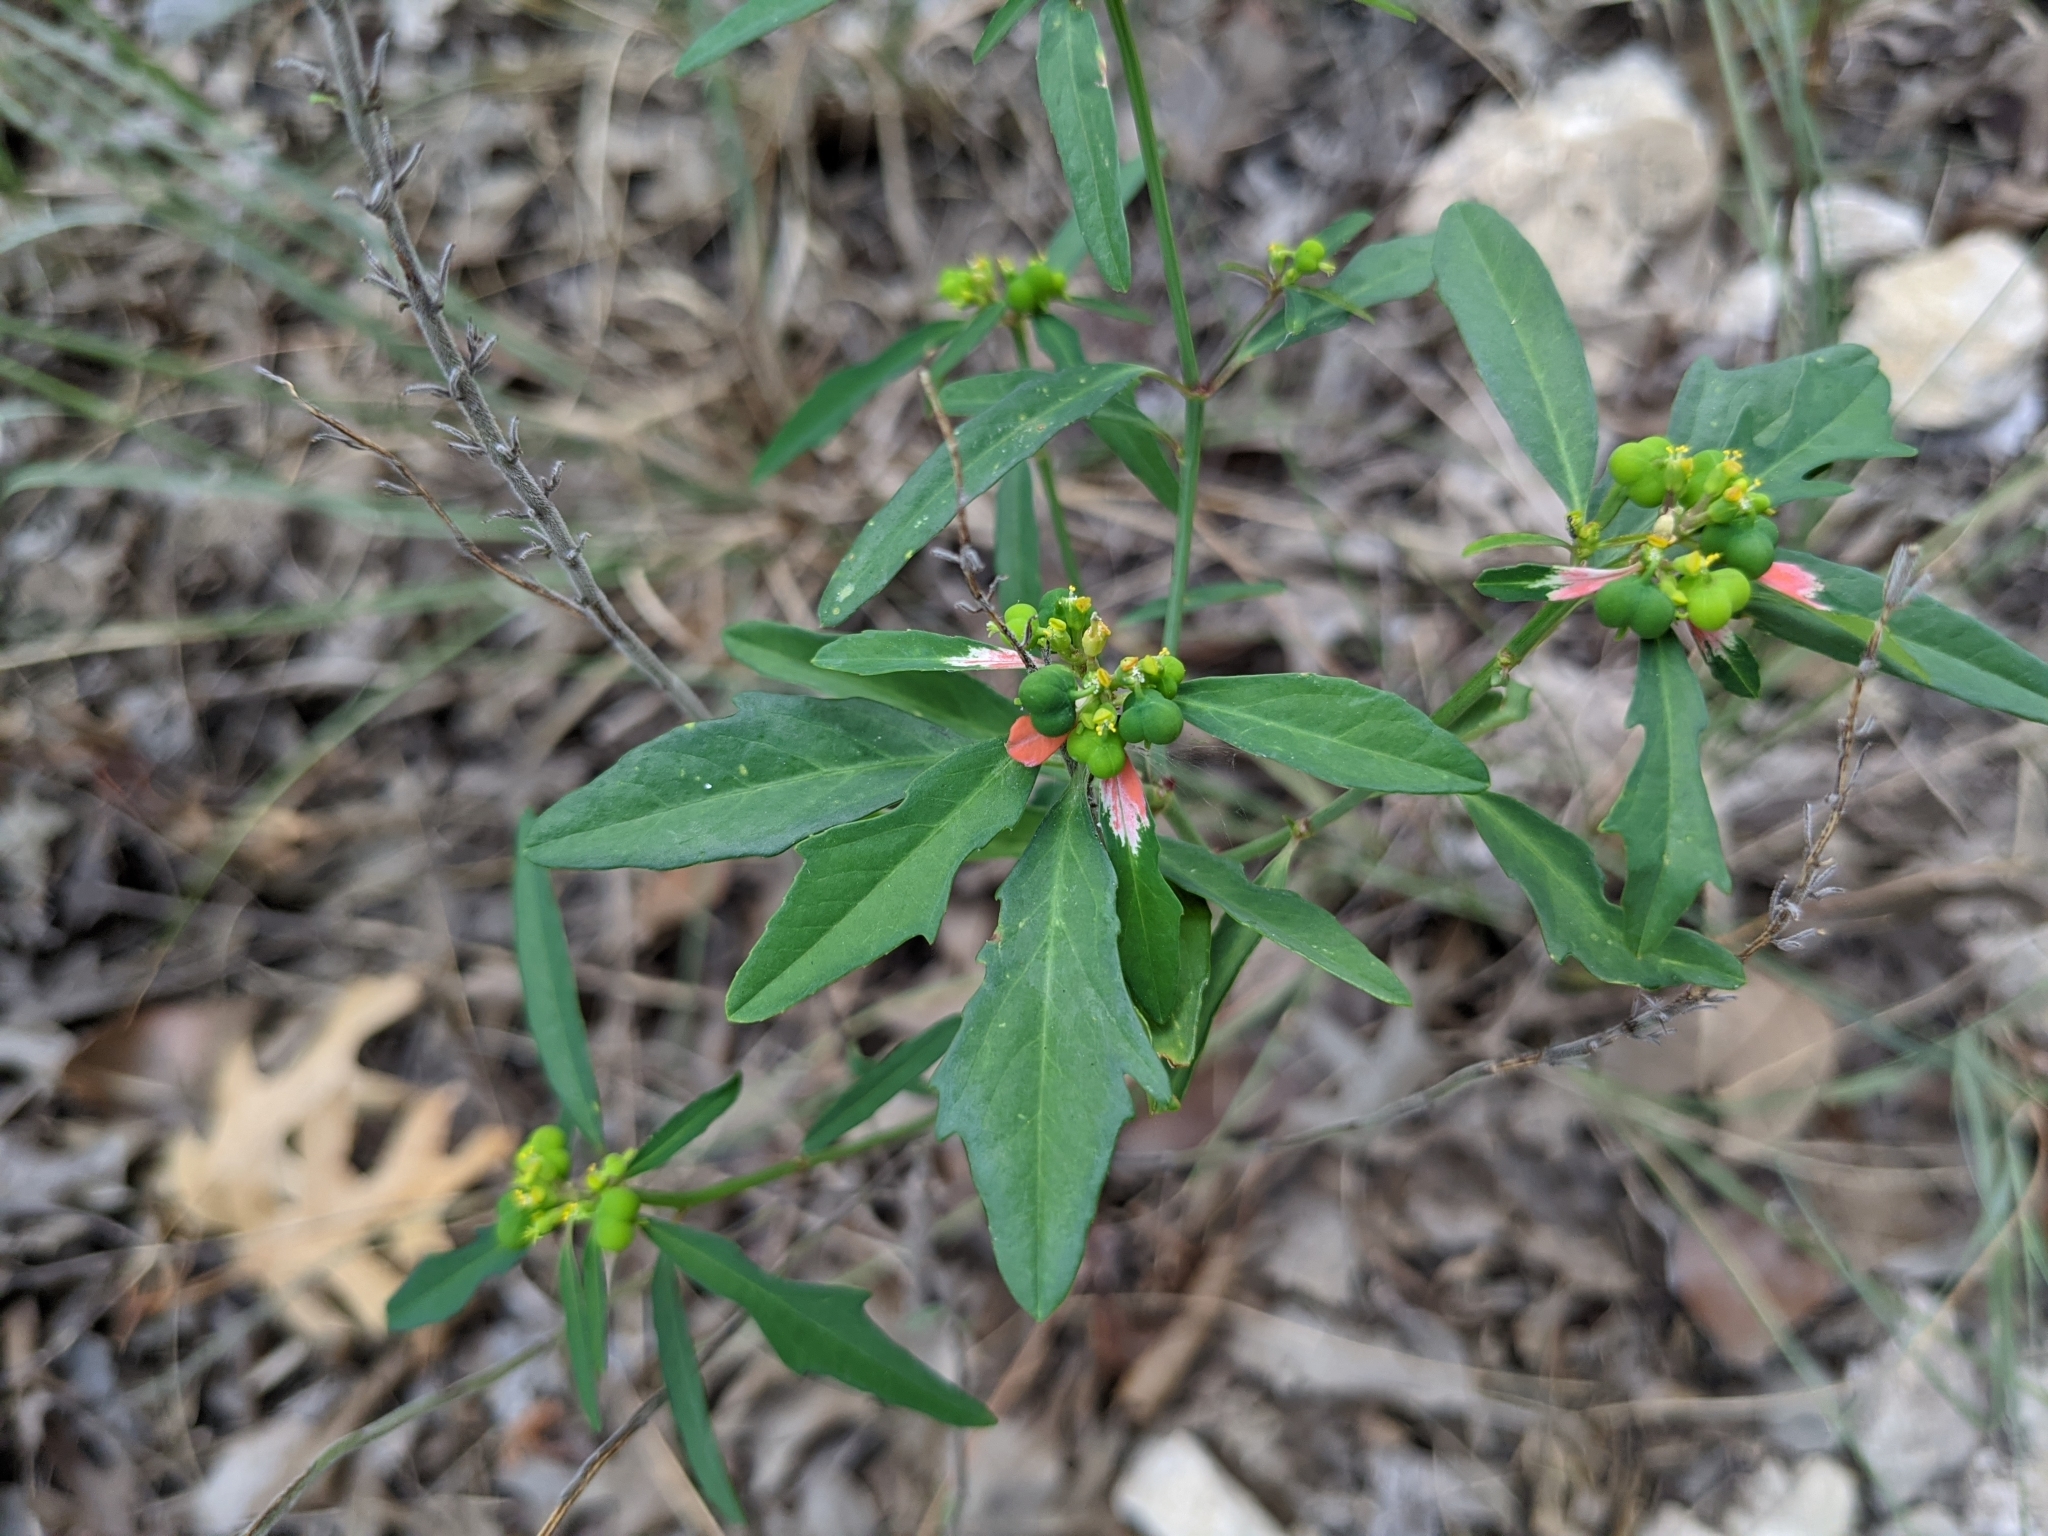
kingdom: Plantae
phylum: Tracheophyta
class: Magnoliopsida
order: Malpighiales
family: Euphorbiaceae
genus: Euphorbia
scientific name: Euphorbia heterophylla
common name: Mexican fireplant
